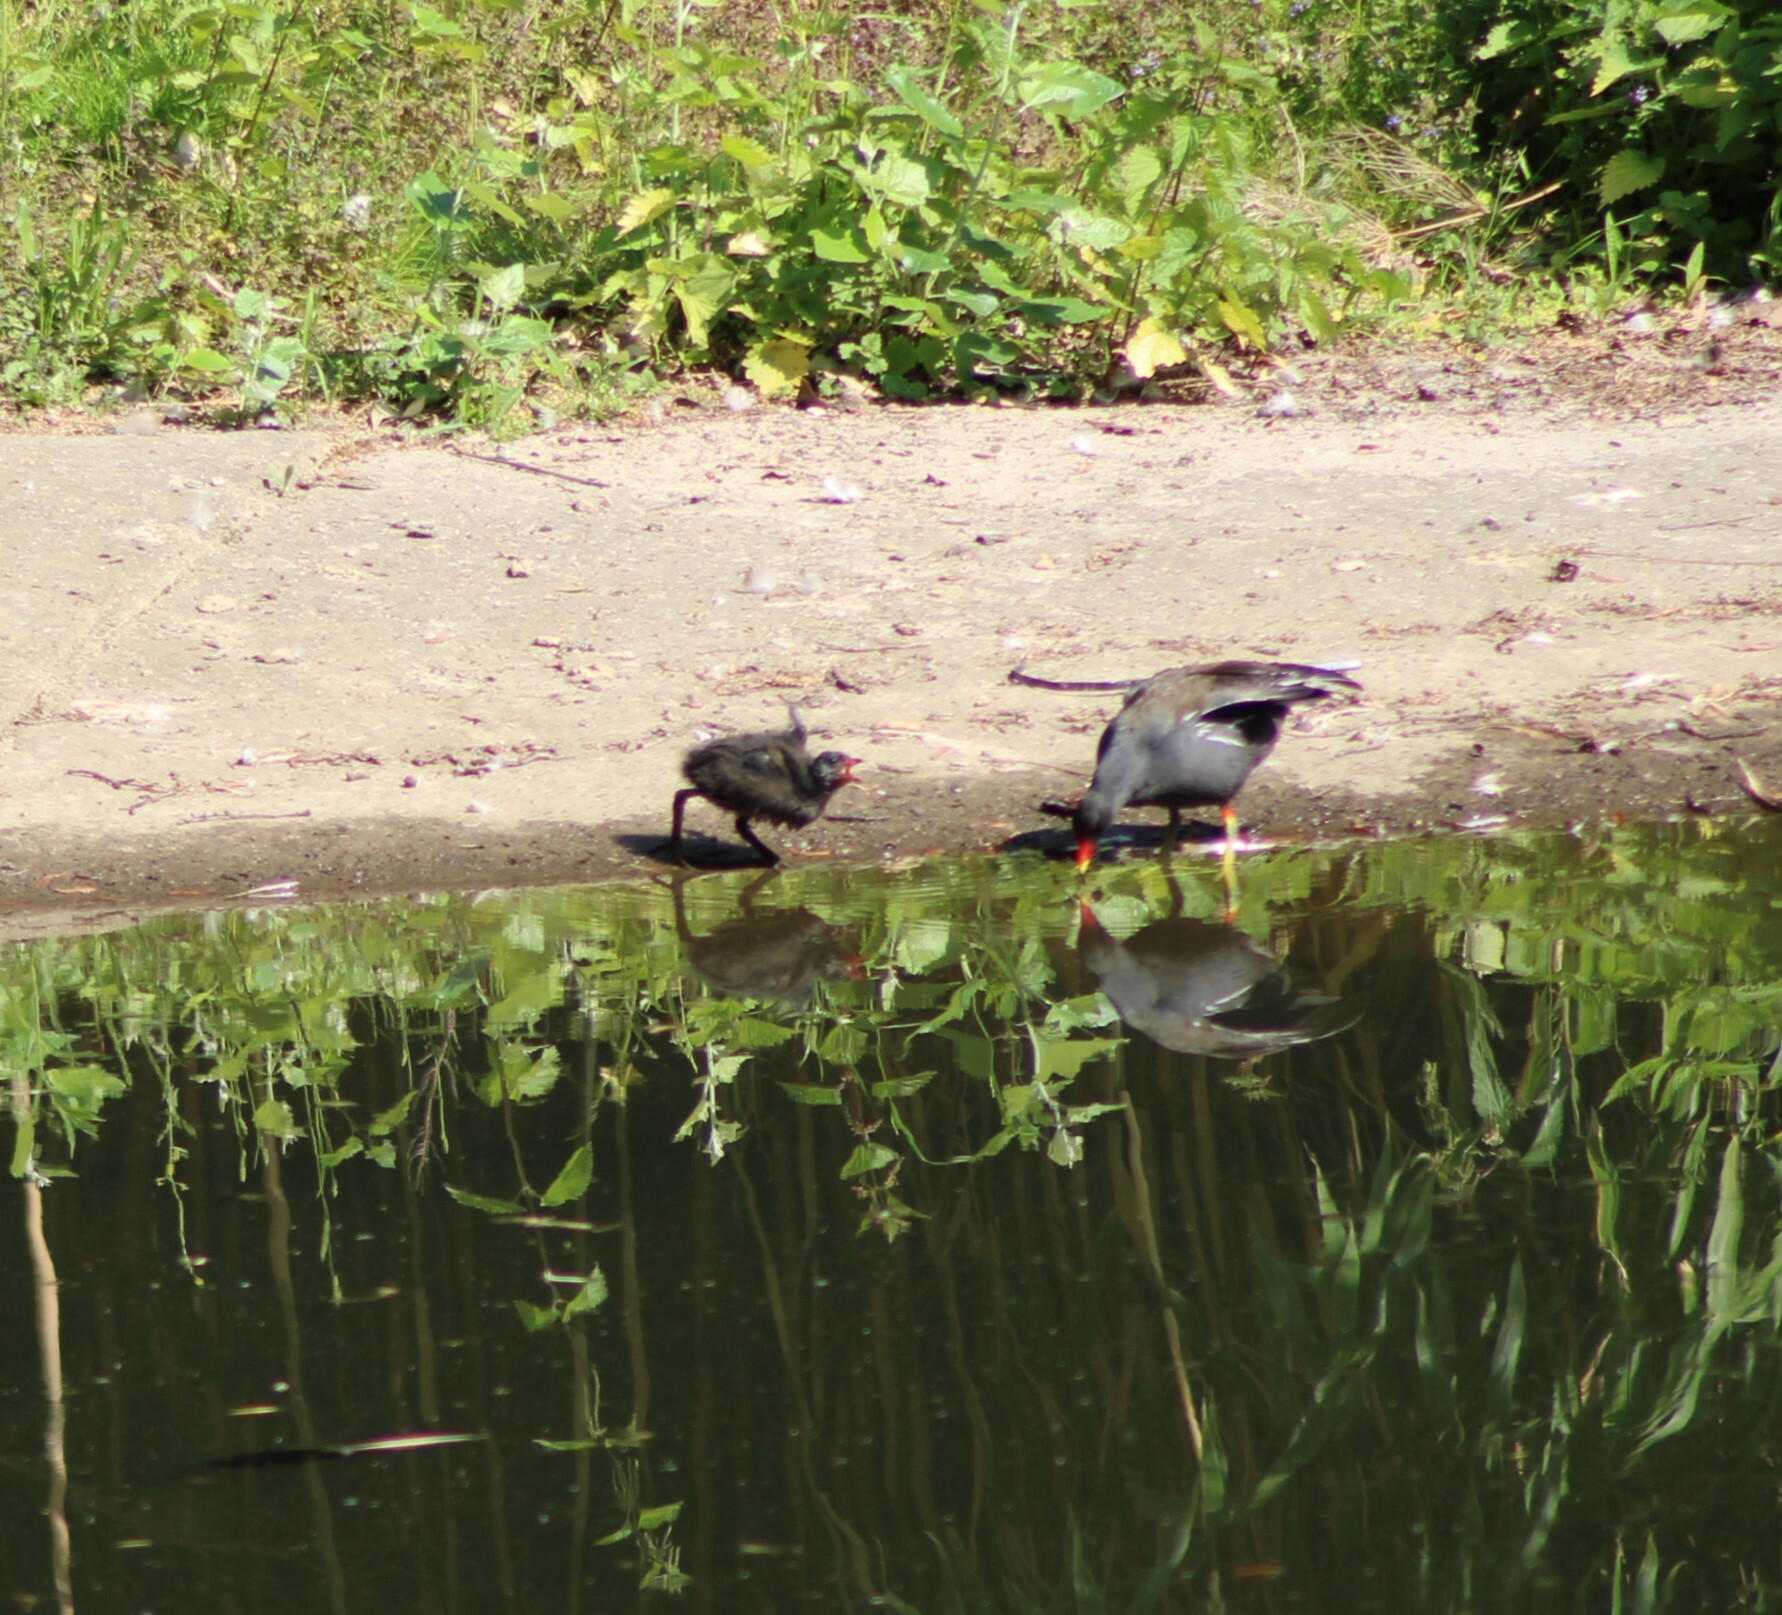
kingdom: Animalia
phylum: Chordata
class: Aves
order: Gruiformes
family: Rallidae
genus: Gallinula
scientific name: Gallinula chloropus
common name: Common moorhen
